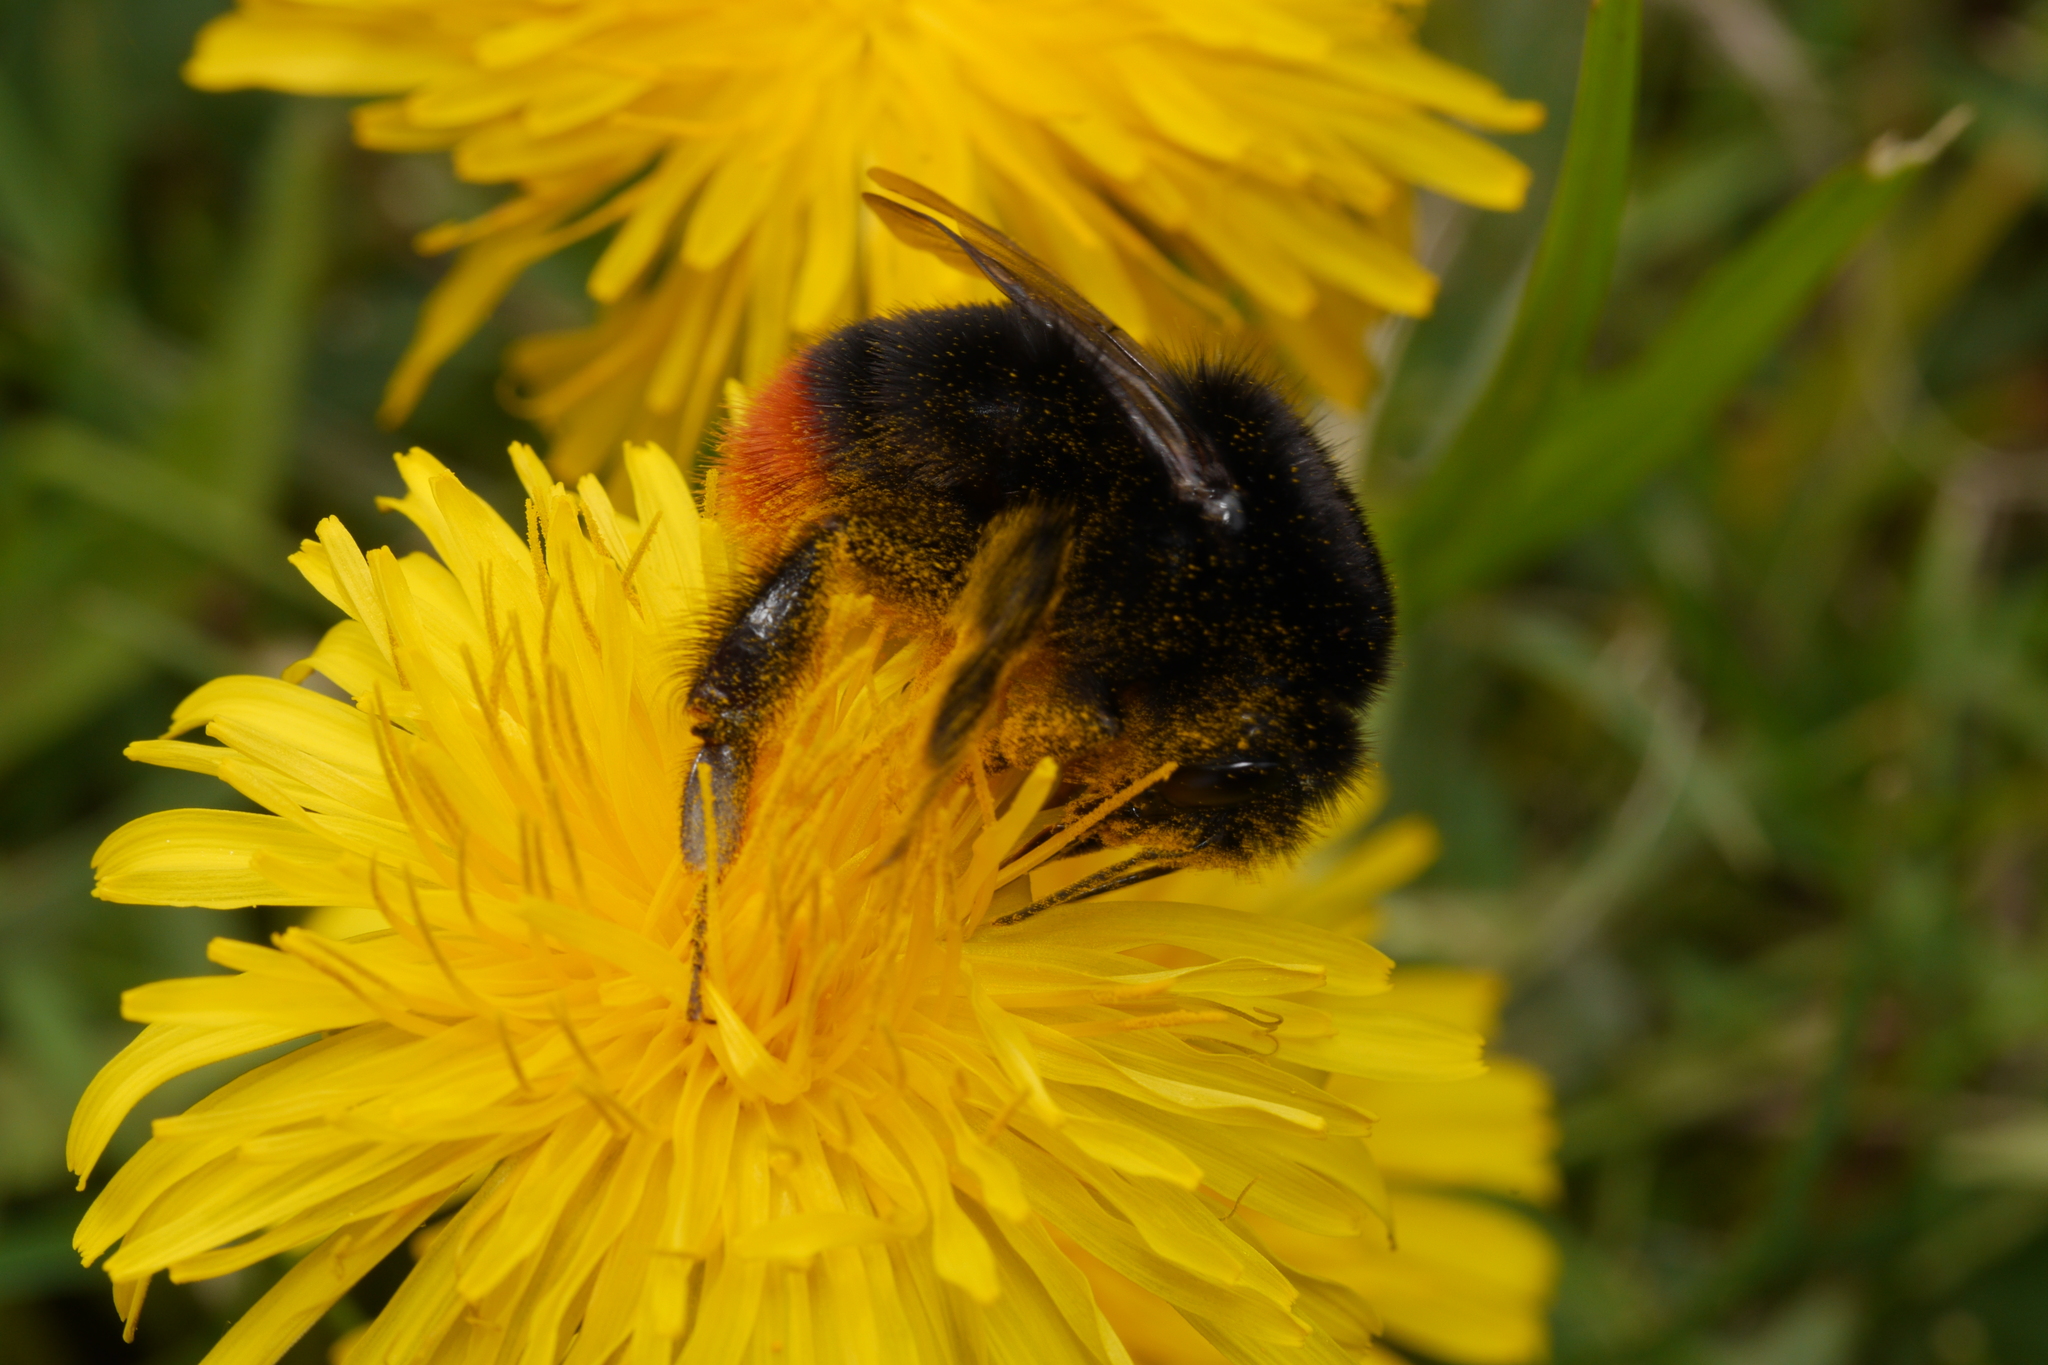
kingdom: Animalia
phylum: Arthropoda
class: Insecta
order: Hymenoptera
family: Apidae
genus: Bombus
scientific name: Bombus lapidarius
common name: Large red-tailed humble-bee
